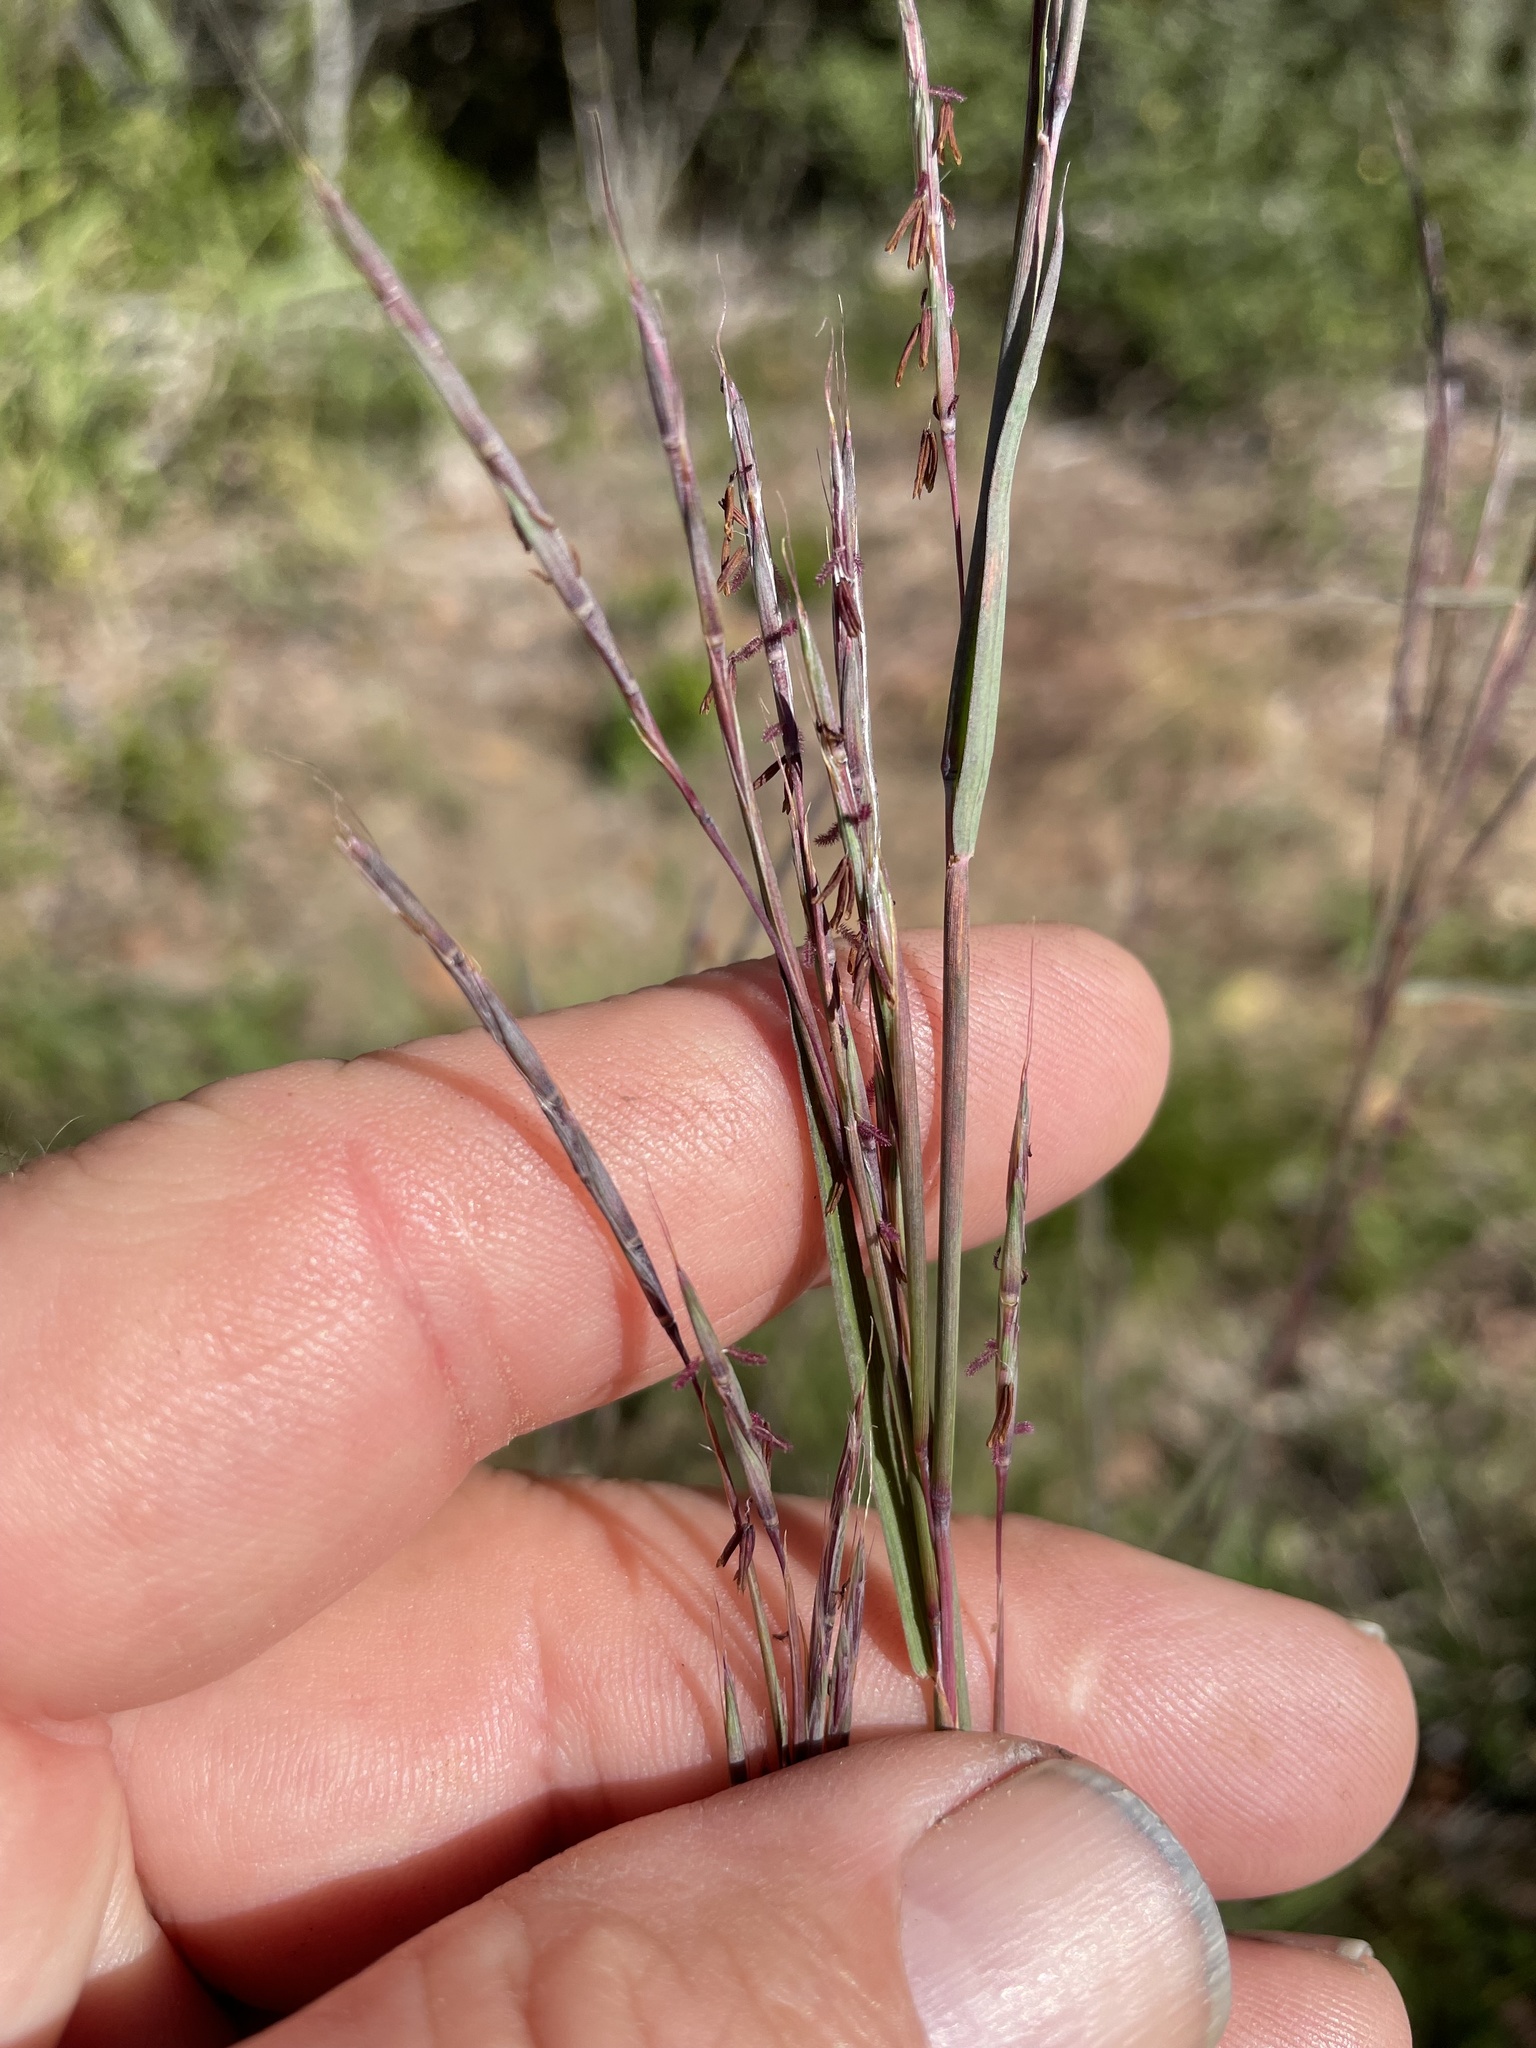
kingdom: Plantae
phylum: Tracheophyta
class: Liliopsida
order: Poales
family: Poaceae
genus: Schizachyrium
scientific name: Schizachyrium scoparium
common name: Little bluestem
